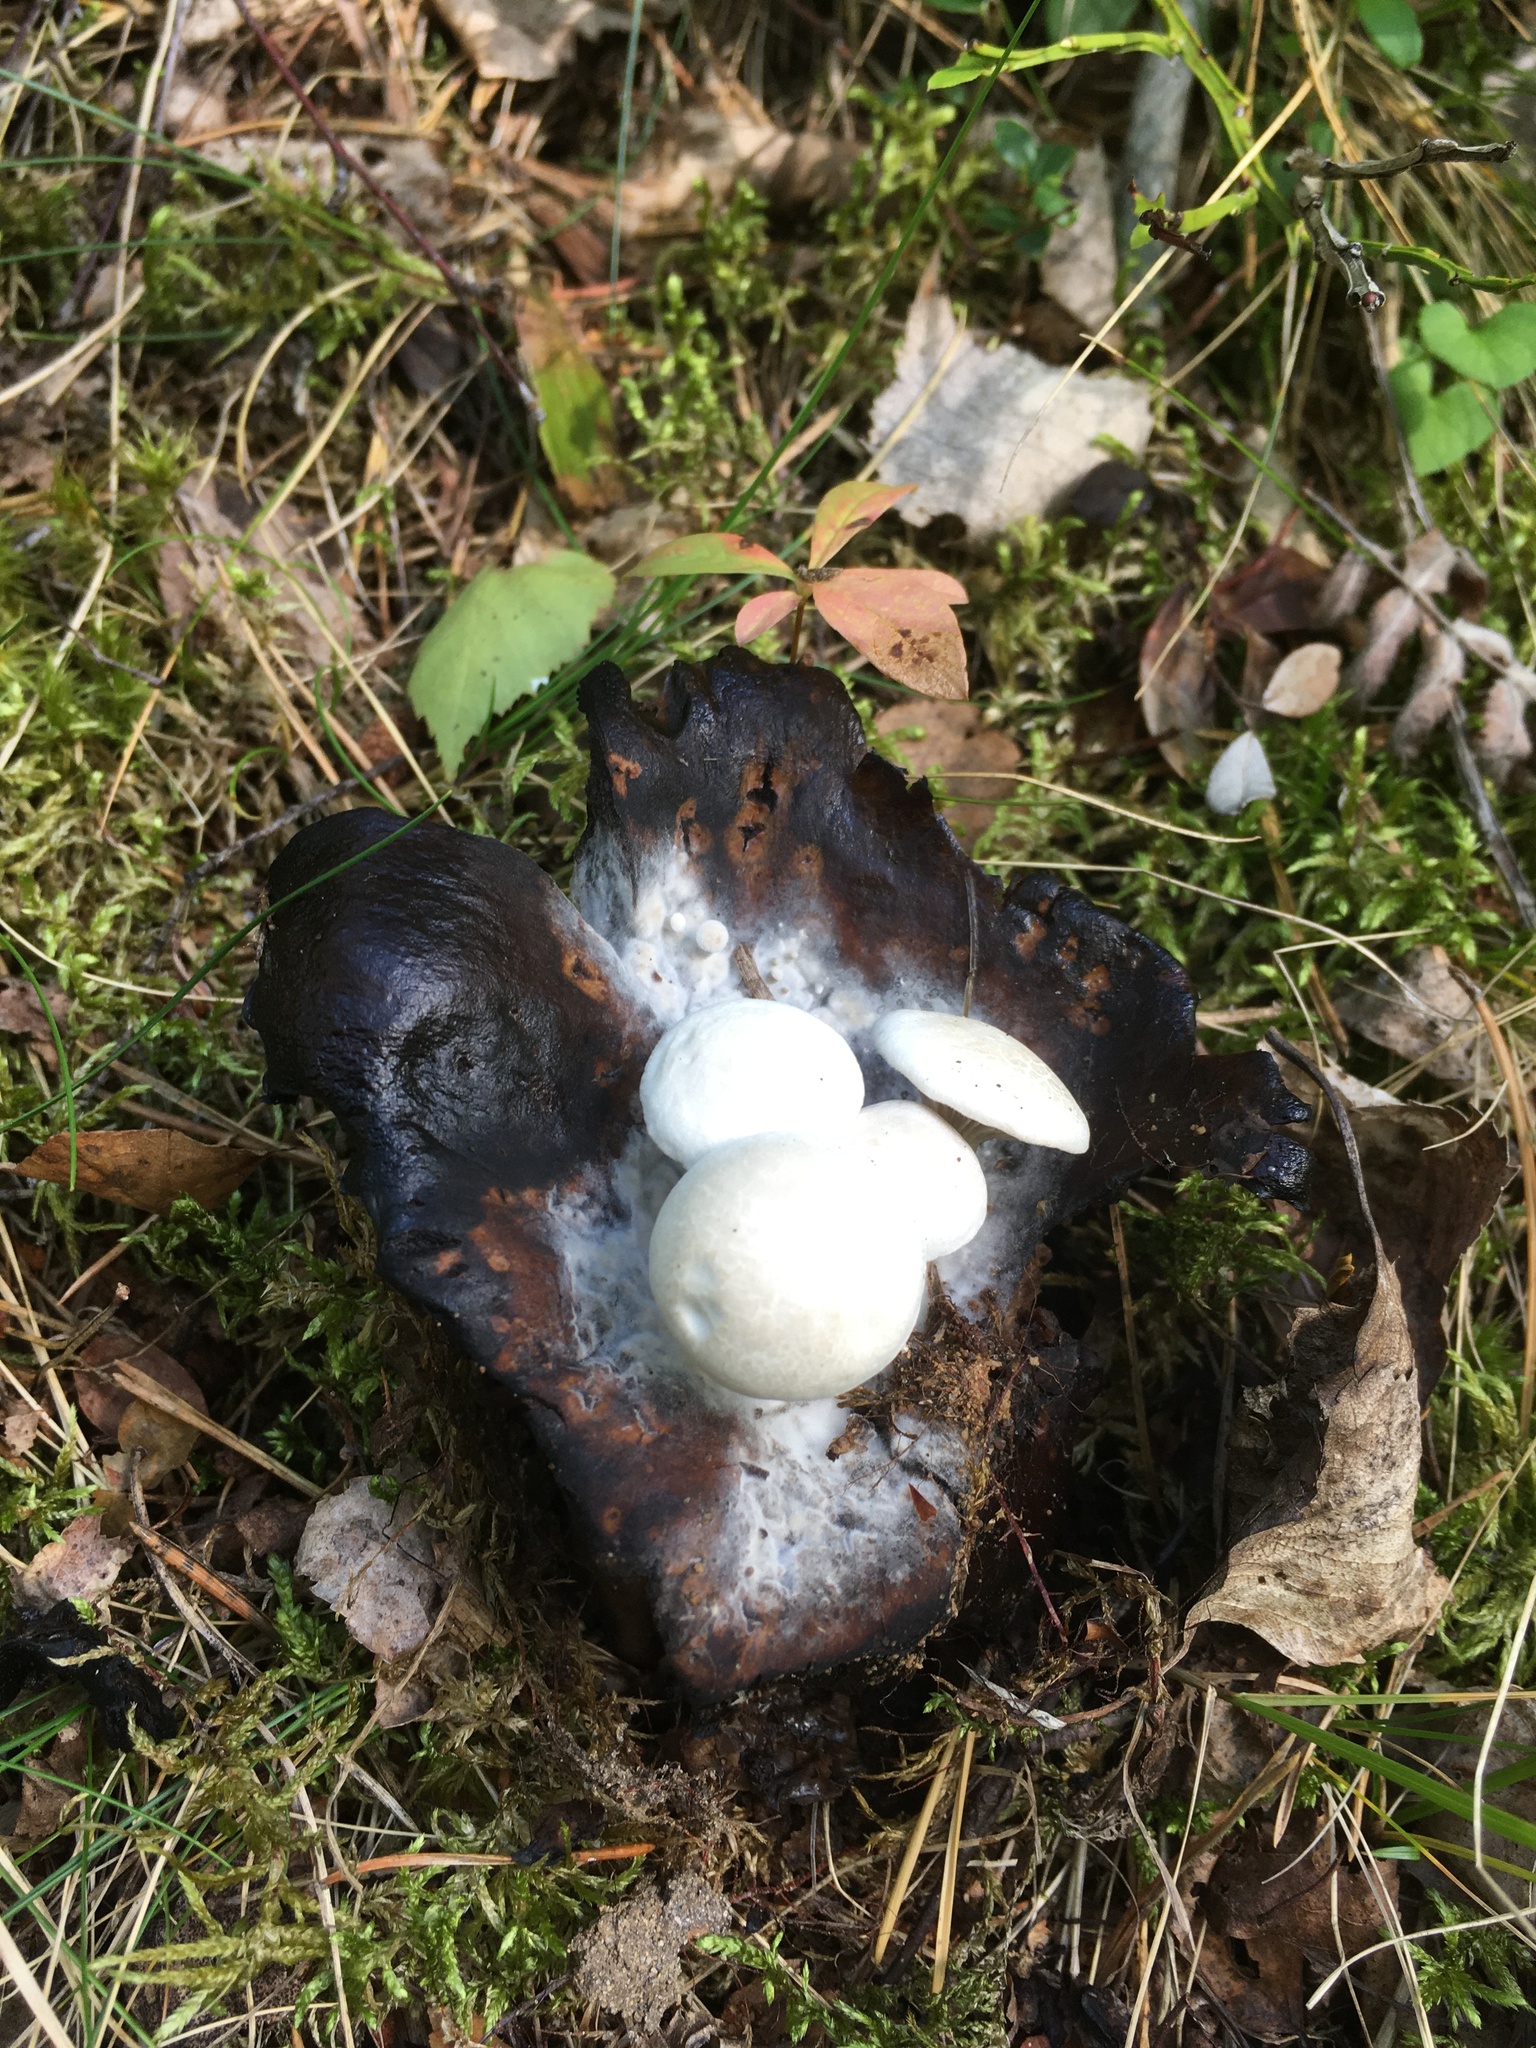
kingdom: Fungi
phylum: Basidiomycota
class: Agaricomycetes
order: Agaricales
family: Lyophyllaceae
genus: Asterophora
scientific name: Asterophora lycoperdoides
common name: Pick-a-back toadstool
